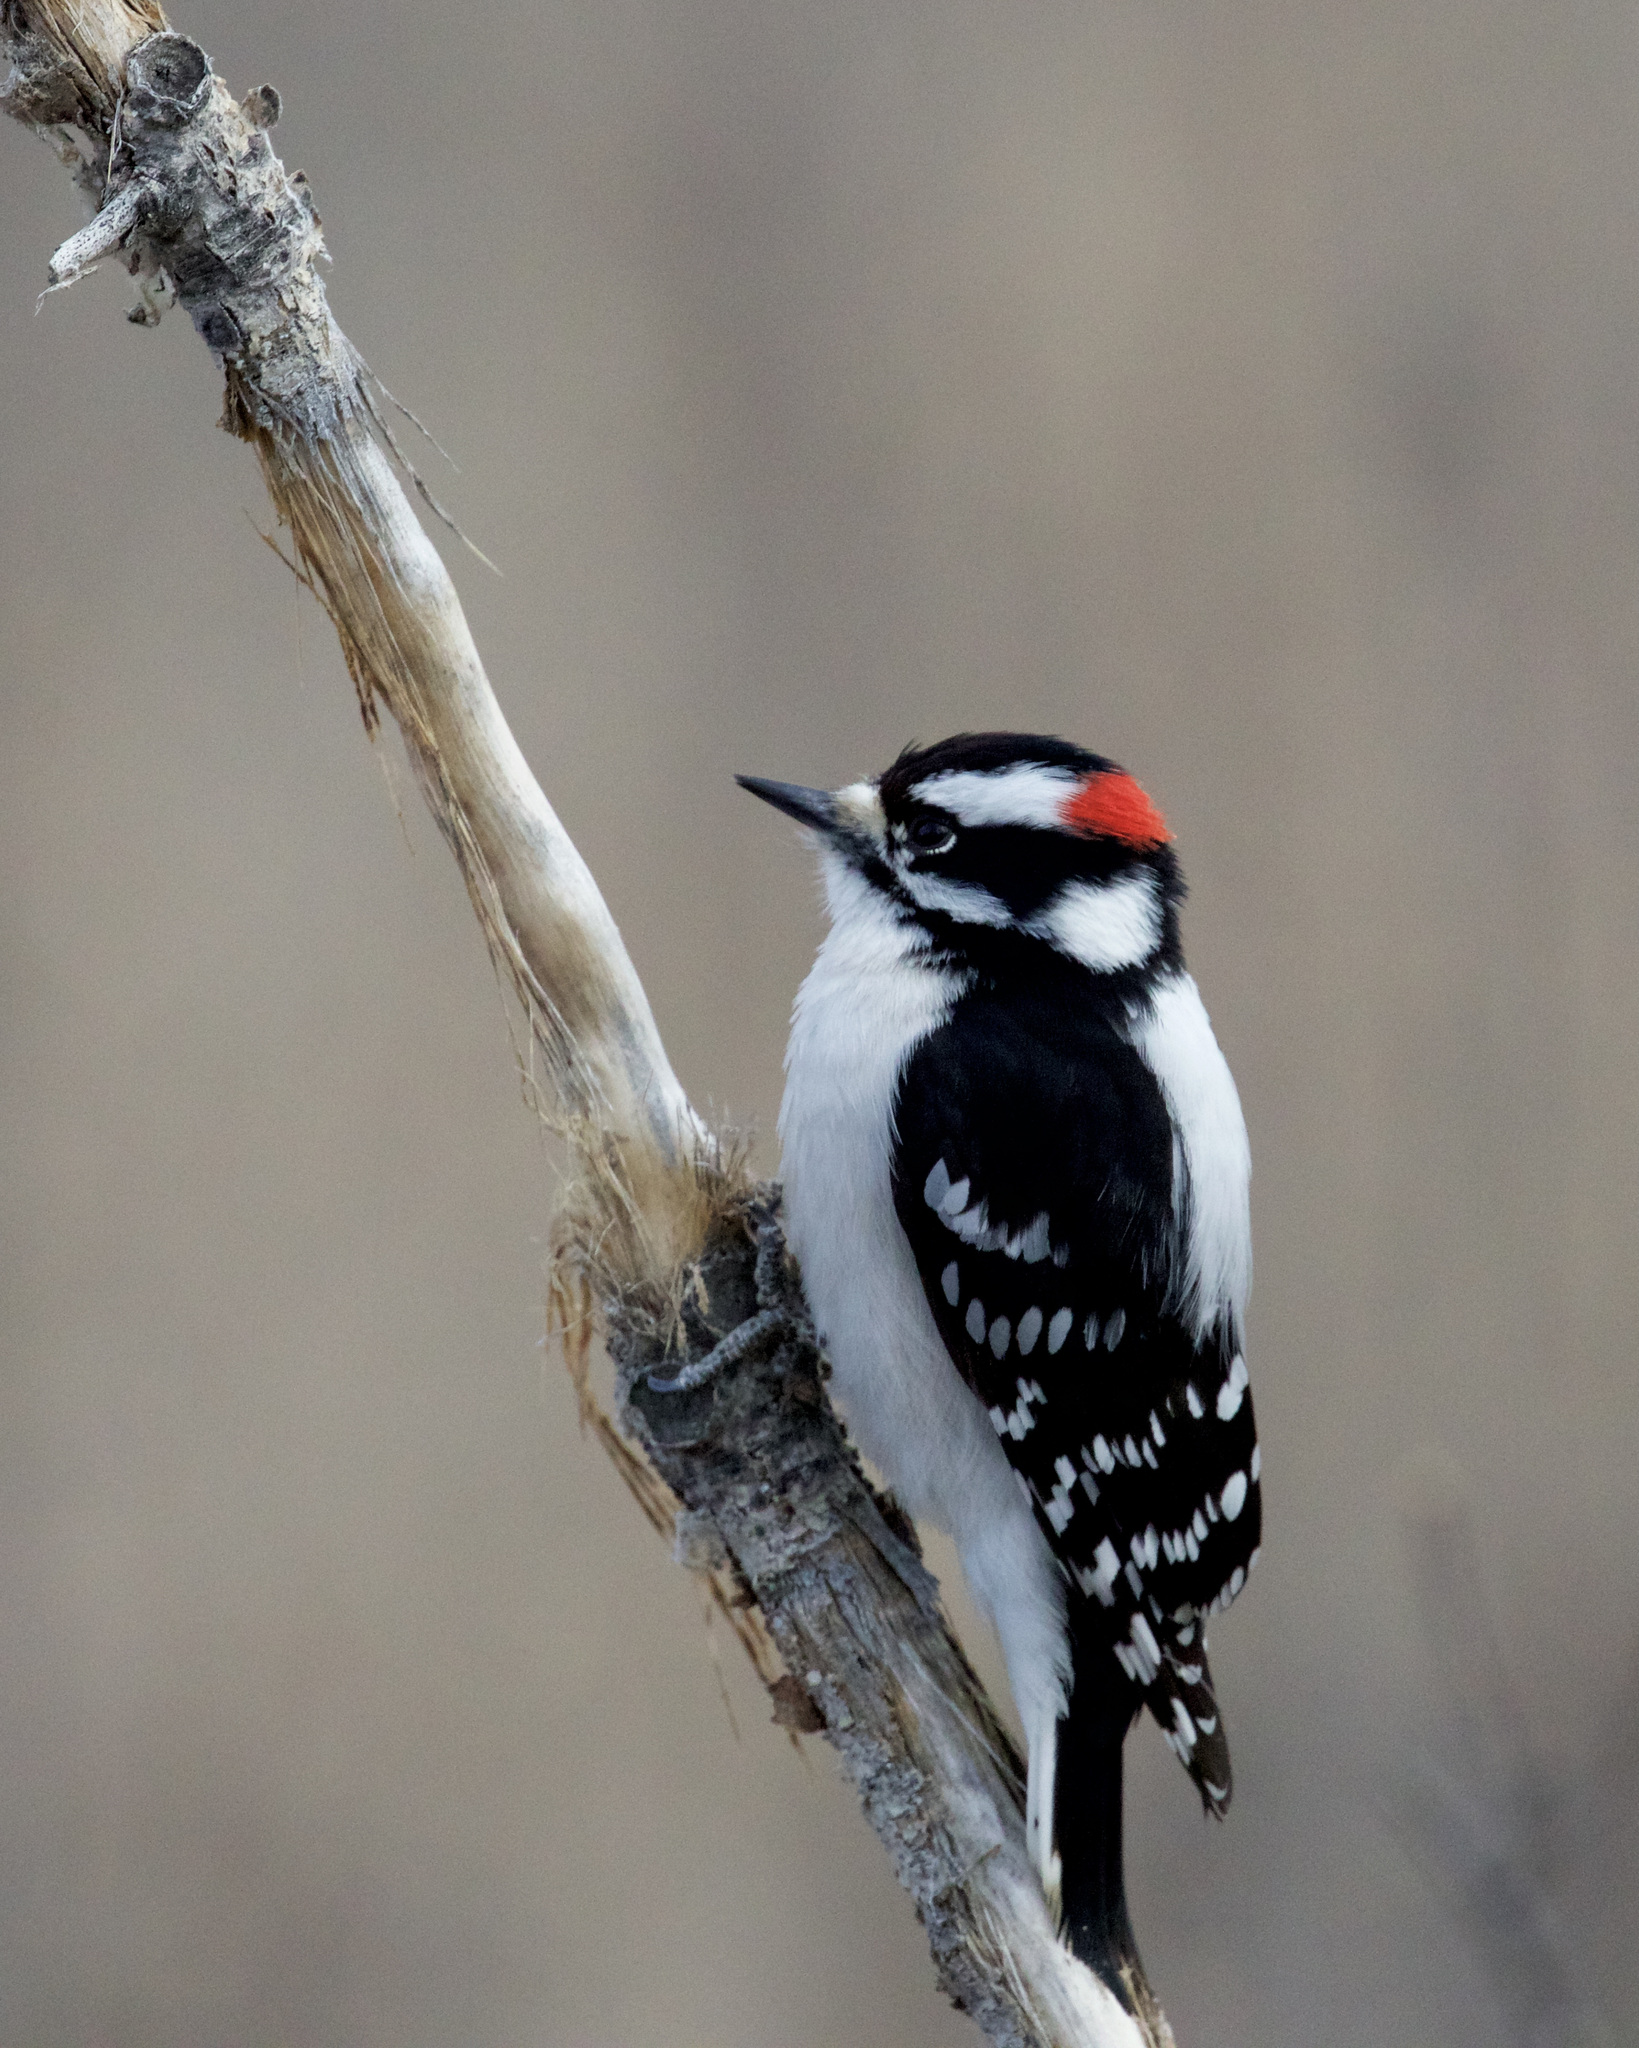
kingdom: Animalia
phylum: Chordata
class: Aves
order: Piciformes
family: Picidae
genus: Dryobates
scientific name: Dryobates pubescens
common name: Downy woodpecker
